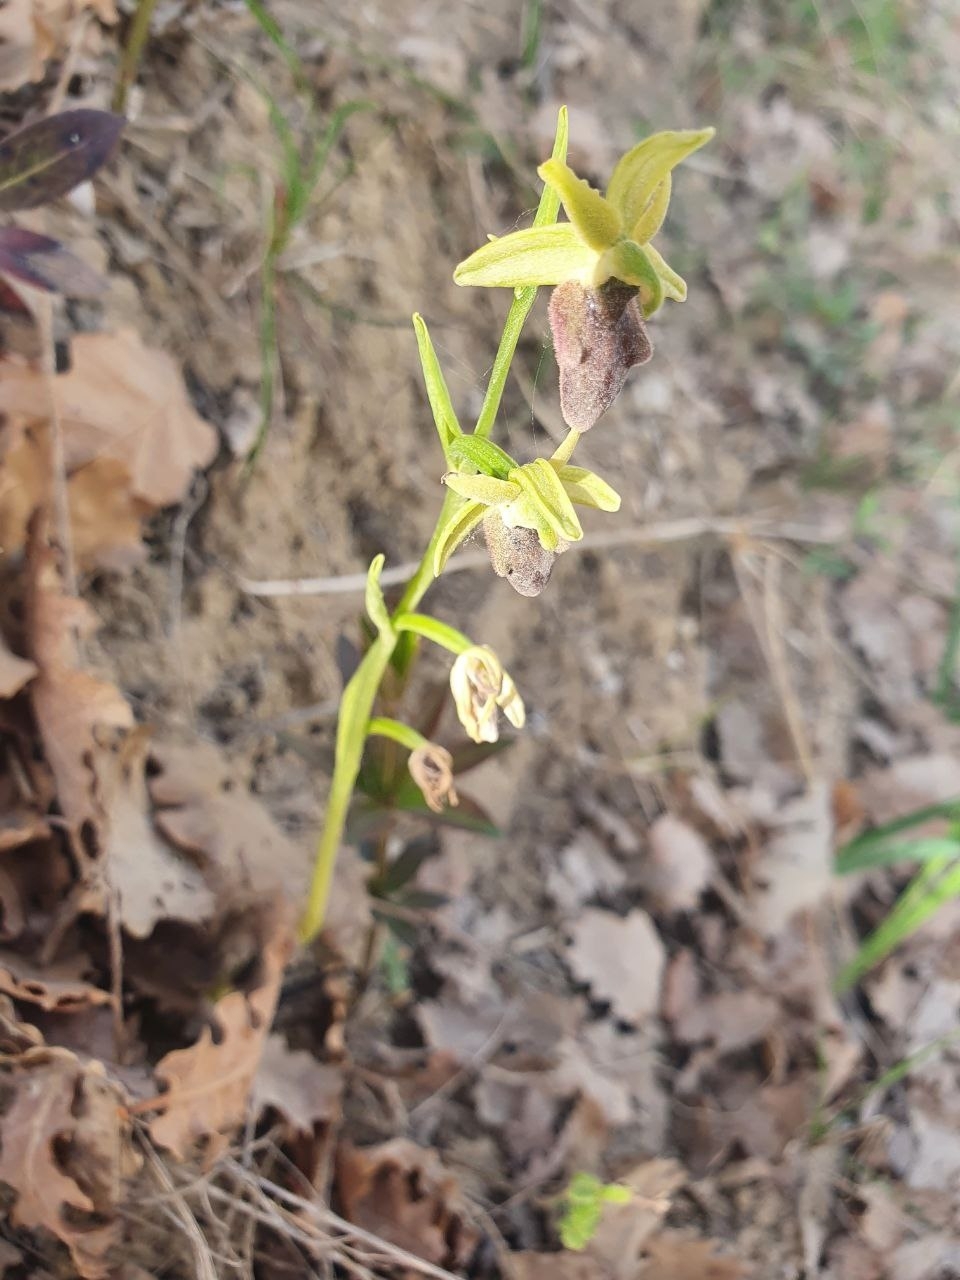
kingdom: Plantae
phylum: Tracheophyta
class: Liliopsida
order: Asparagales
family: Orchidaceae
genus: Ophrys
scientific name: Ophrys sphegodes
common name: Early spider-orchid
